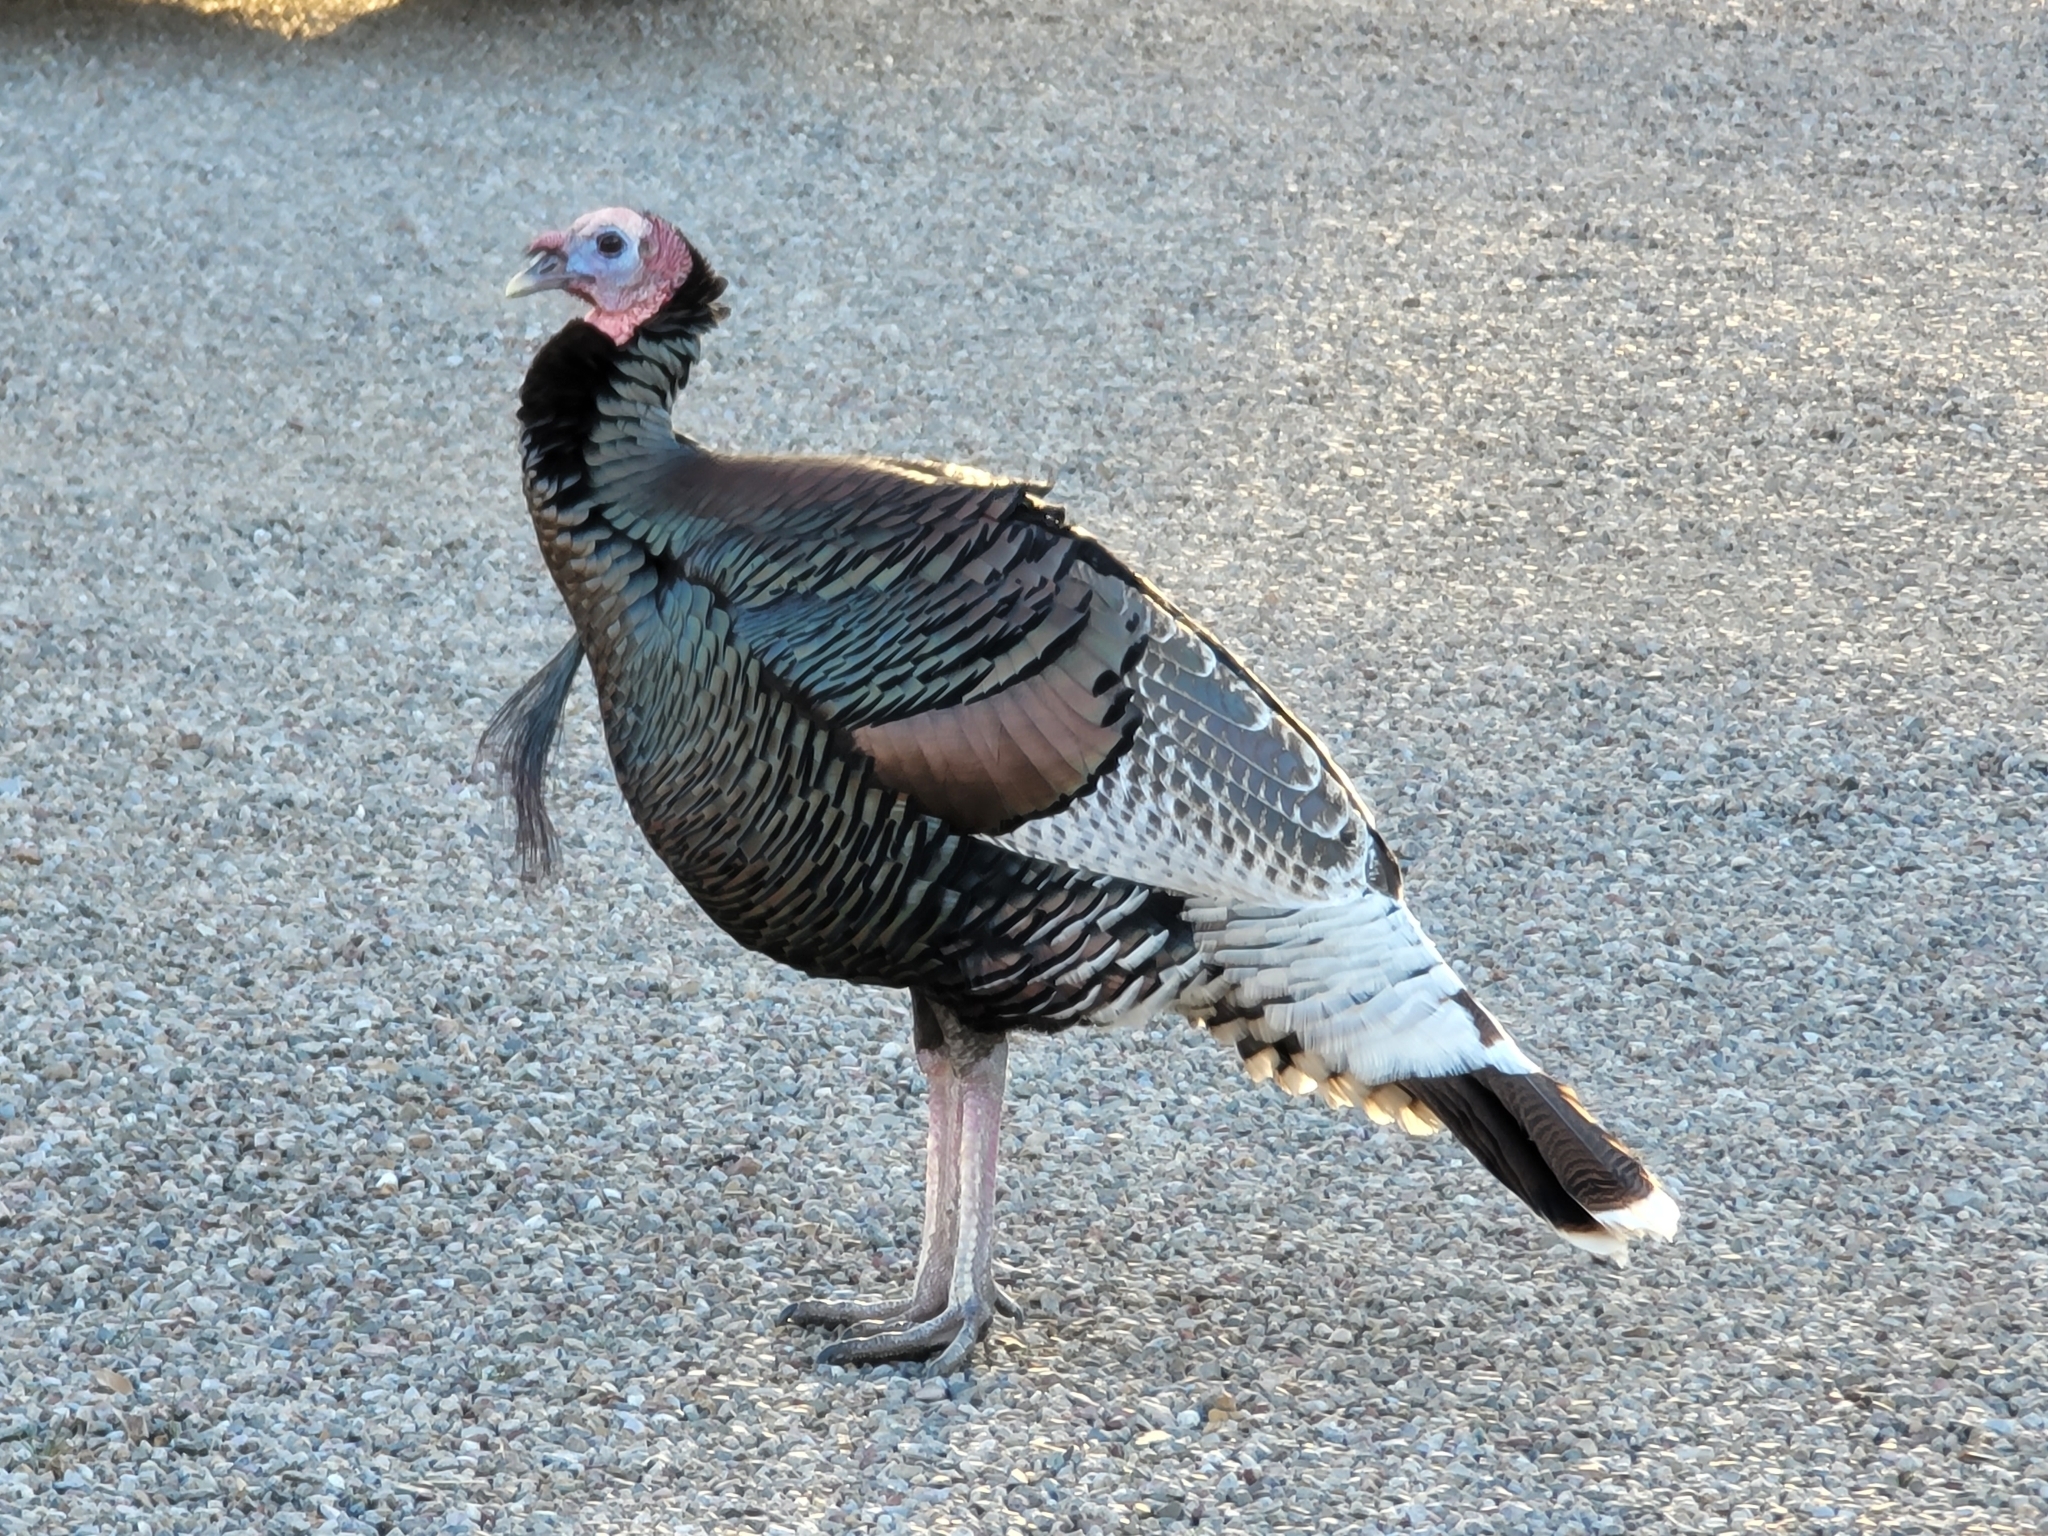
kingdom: Animalia
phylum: Chordata
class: Aves
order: Galliformes
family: Phasianidae
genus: Meleagris
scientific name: Meleagris gallopavo
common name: Wild turkey
